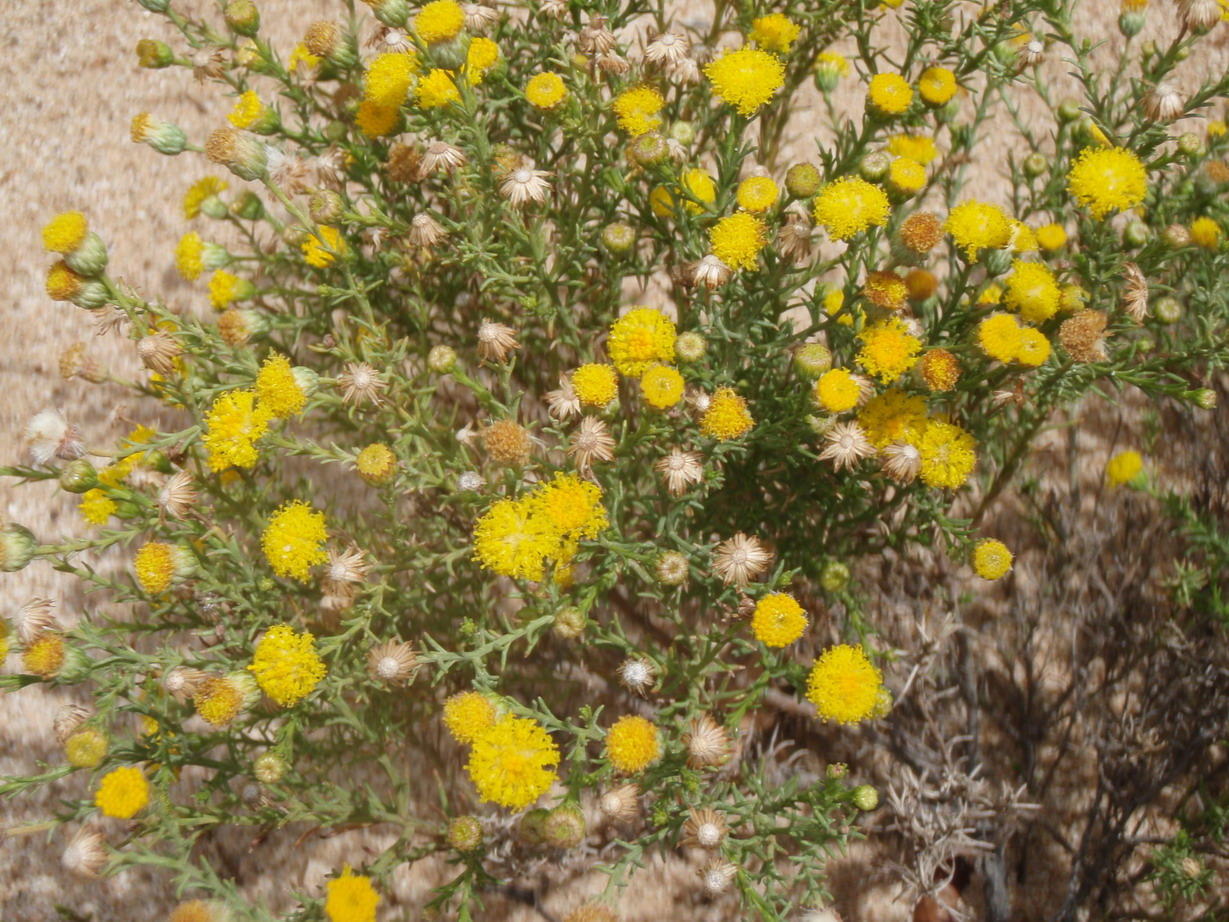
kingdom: Plantae
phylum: Tracheophyta
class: Magnoliopsida
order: Asterales
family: Asteraceae
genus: Chrysocoma
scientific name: Chrysocoma ciliata
